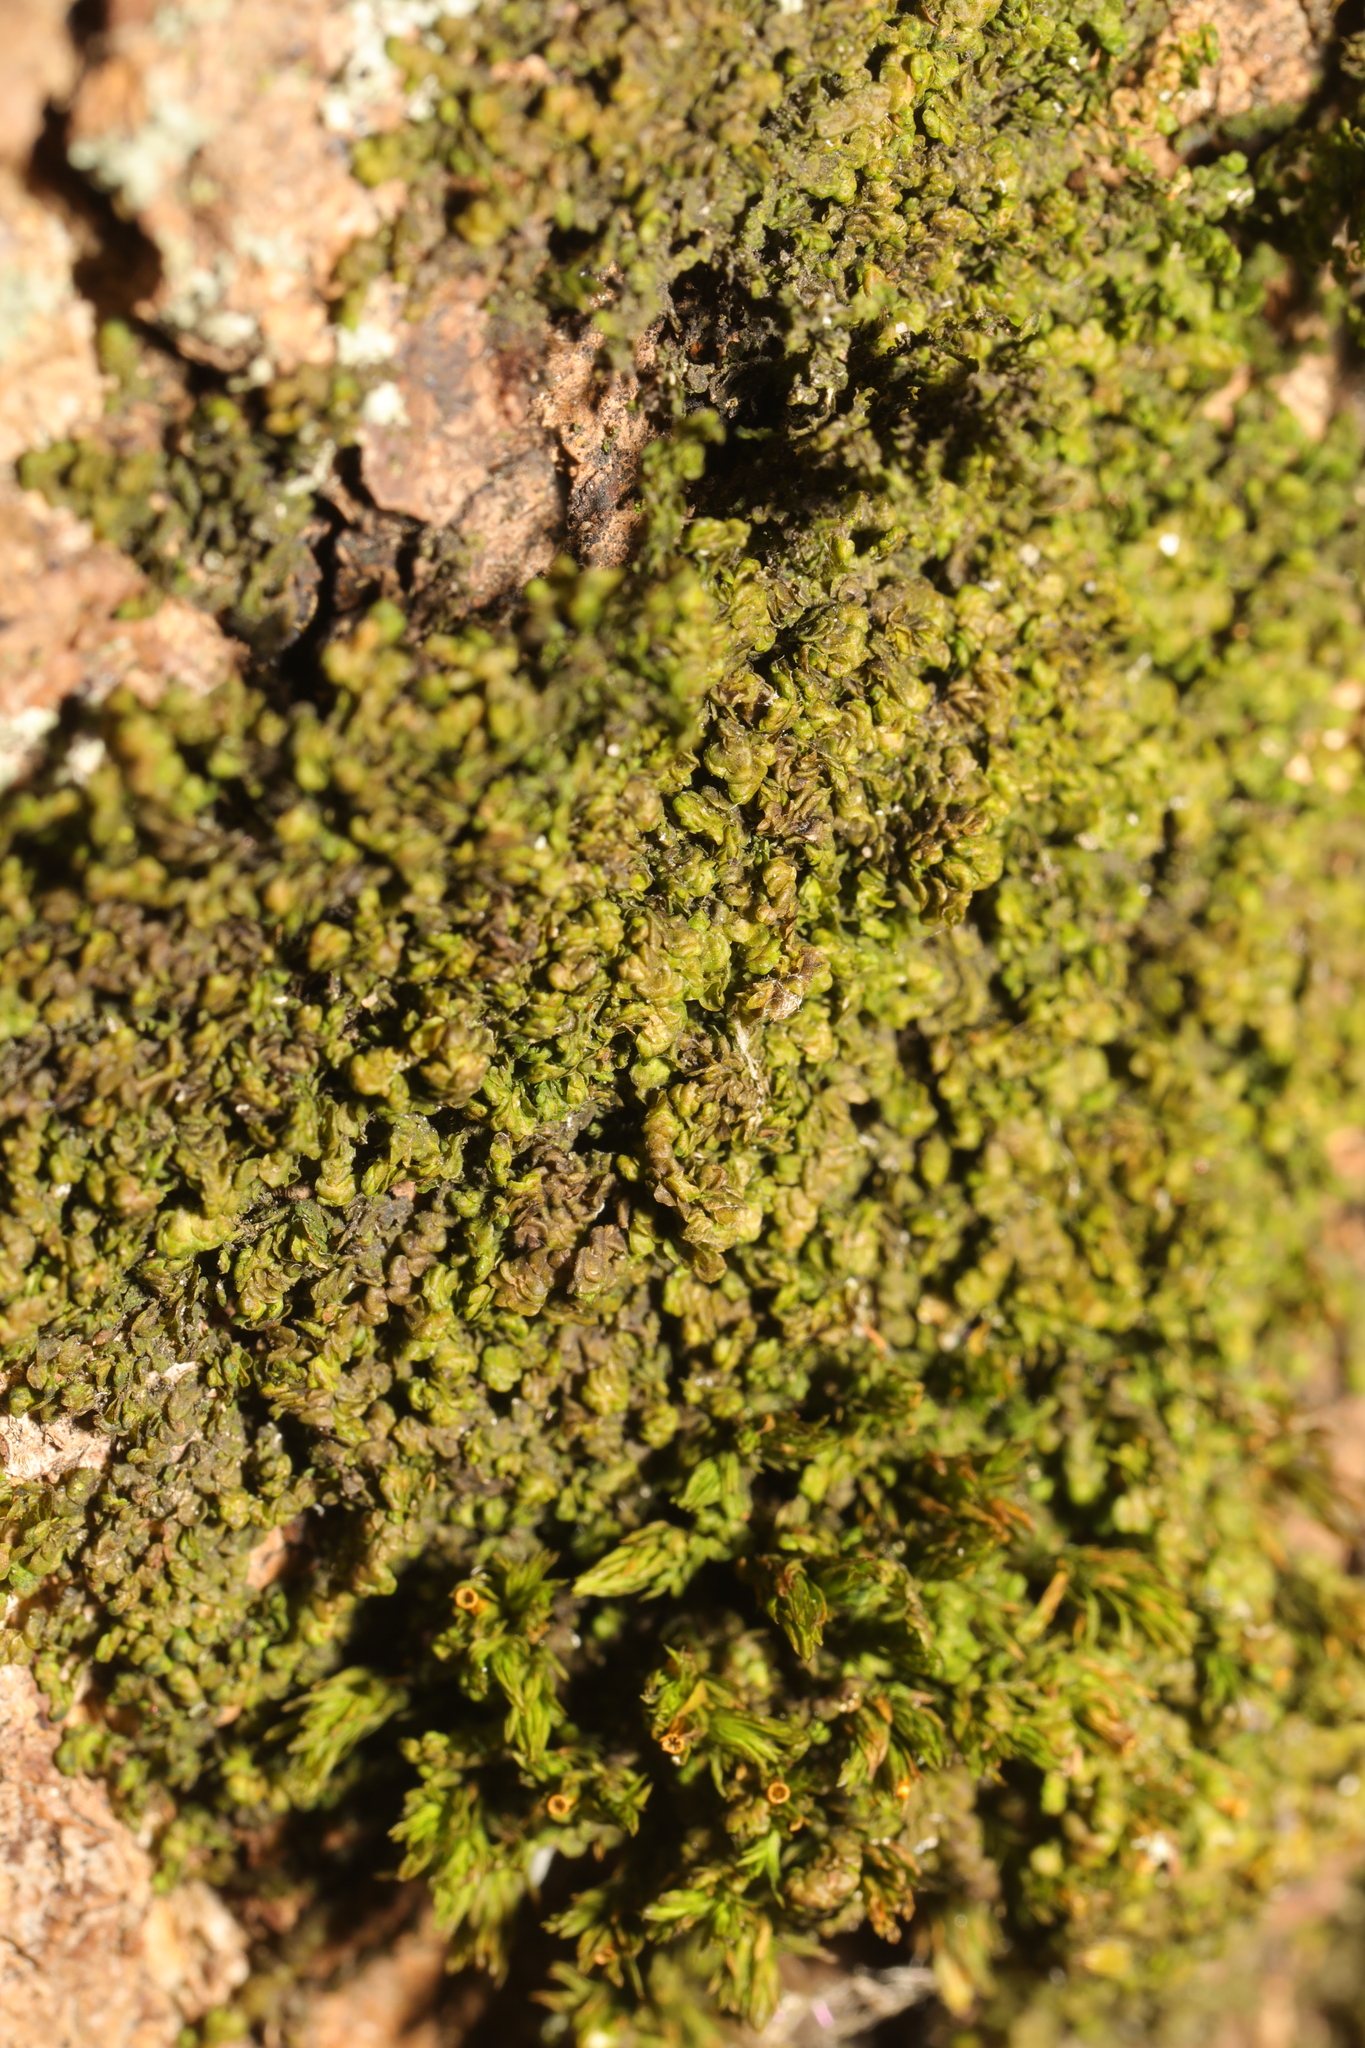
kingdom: Plantae
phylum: Marchantiophyta
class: Jungermanniopsida
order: Porellales
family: Frullaniaceae
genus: Frullania
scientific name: Frullania dilatata
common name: Dilated scalewort
